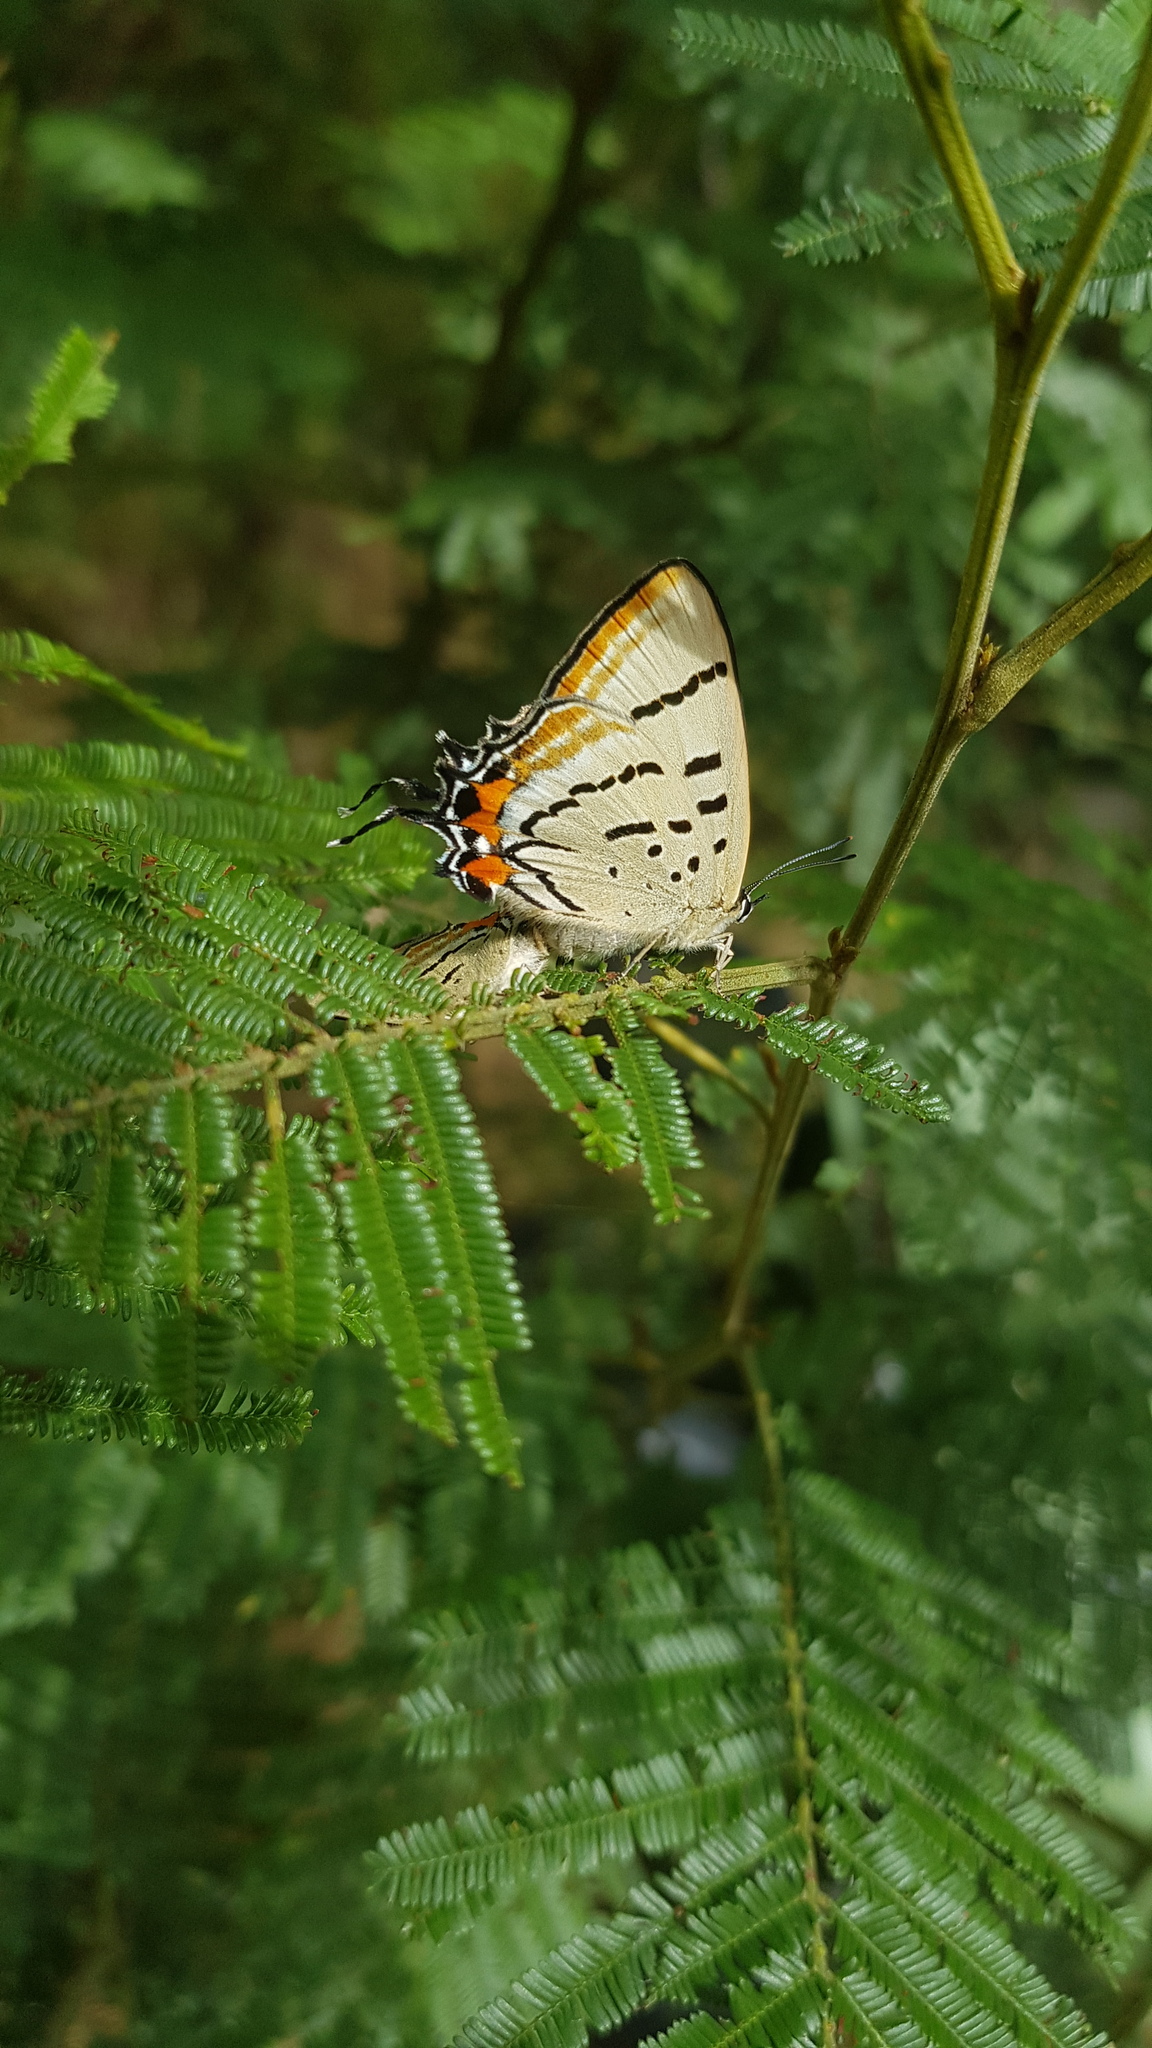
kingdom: Animalia
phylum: Arthropoda
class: Insecta
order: Lepidoptera
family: Lycaenidae
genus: Jalmenus
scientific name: Jalmenus evagoras
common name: Common imperial blue
